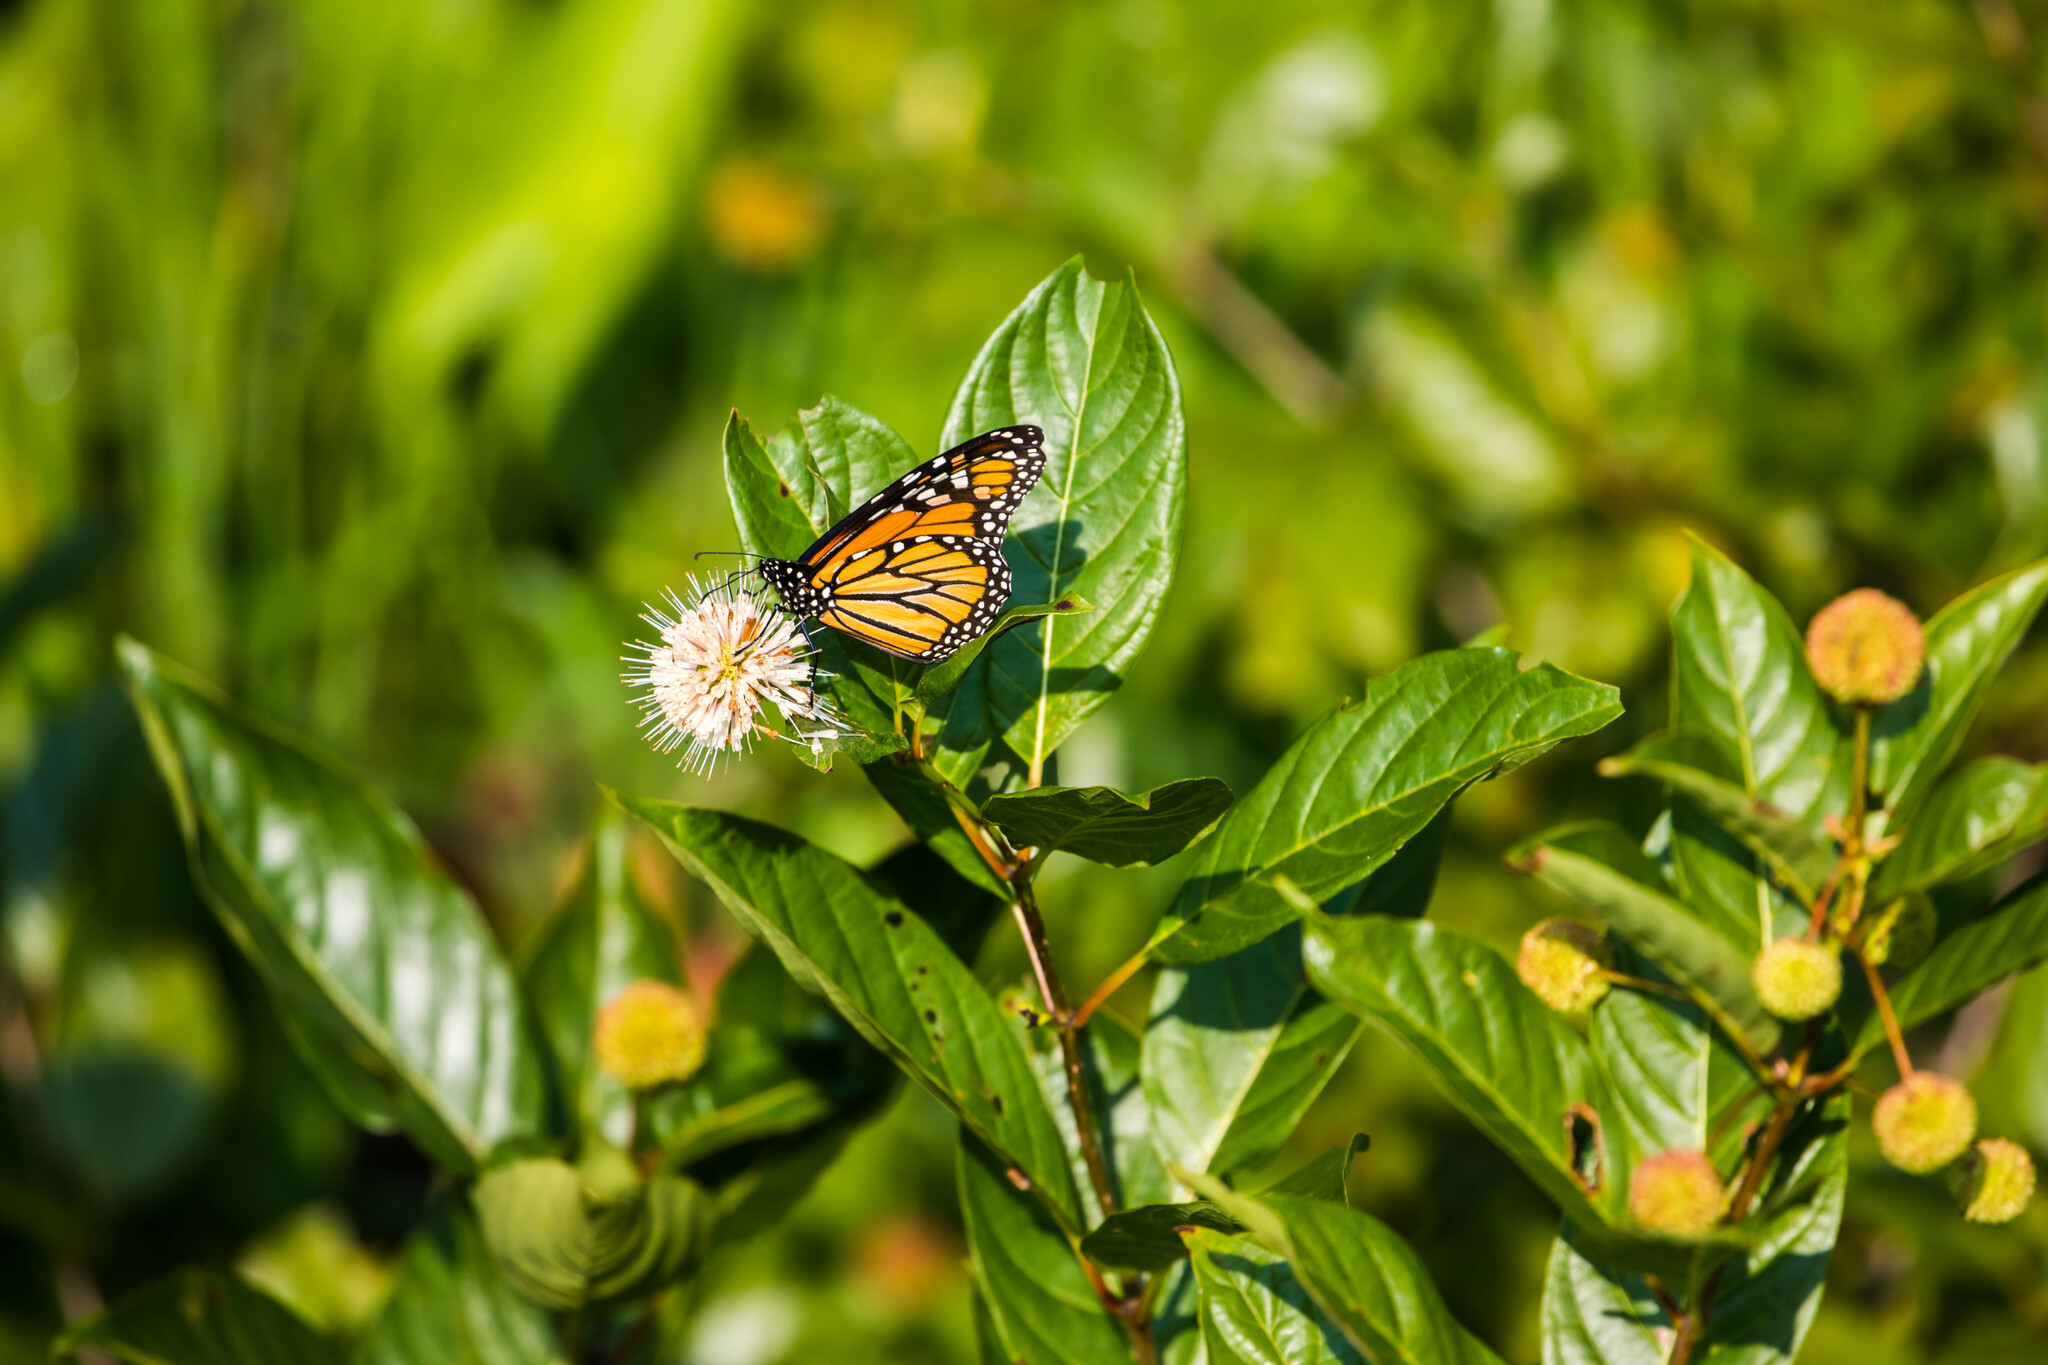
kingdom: Animalia
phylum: Arthropoda
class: Insecta
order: Lepidoptera
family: Nymphalidae
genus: Danaus
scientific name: Danaus plexippus
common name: Monarch
